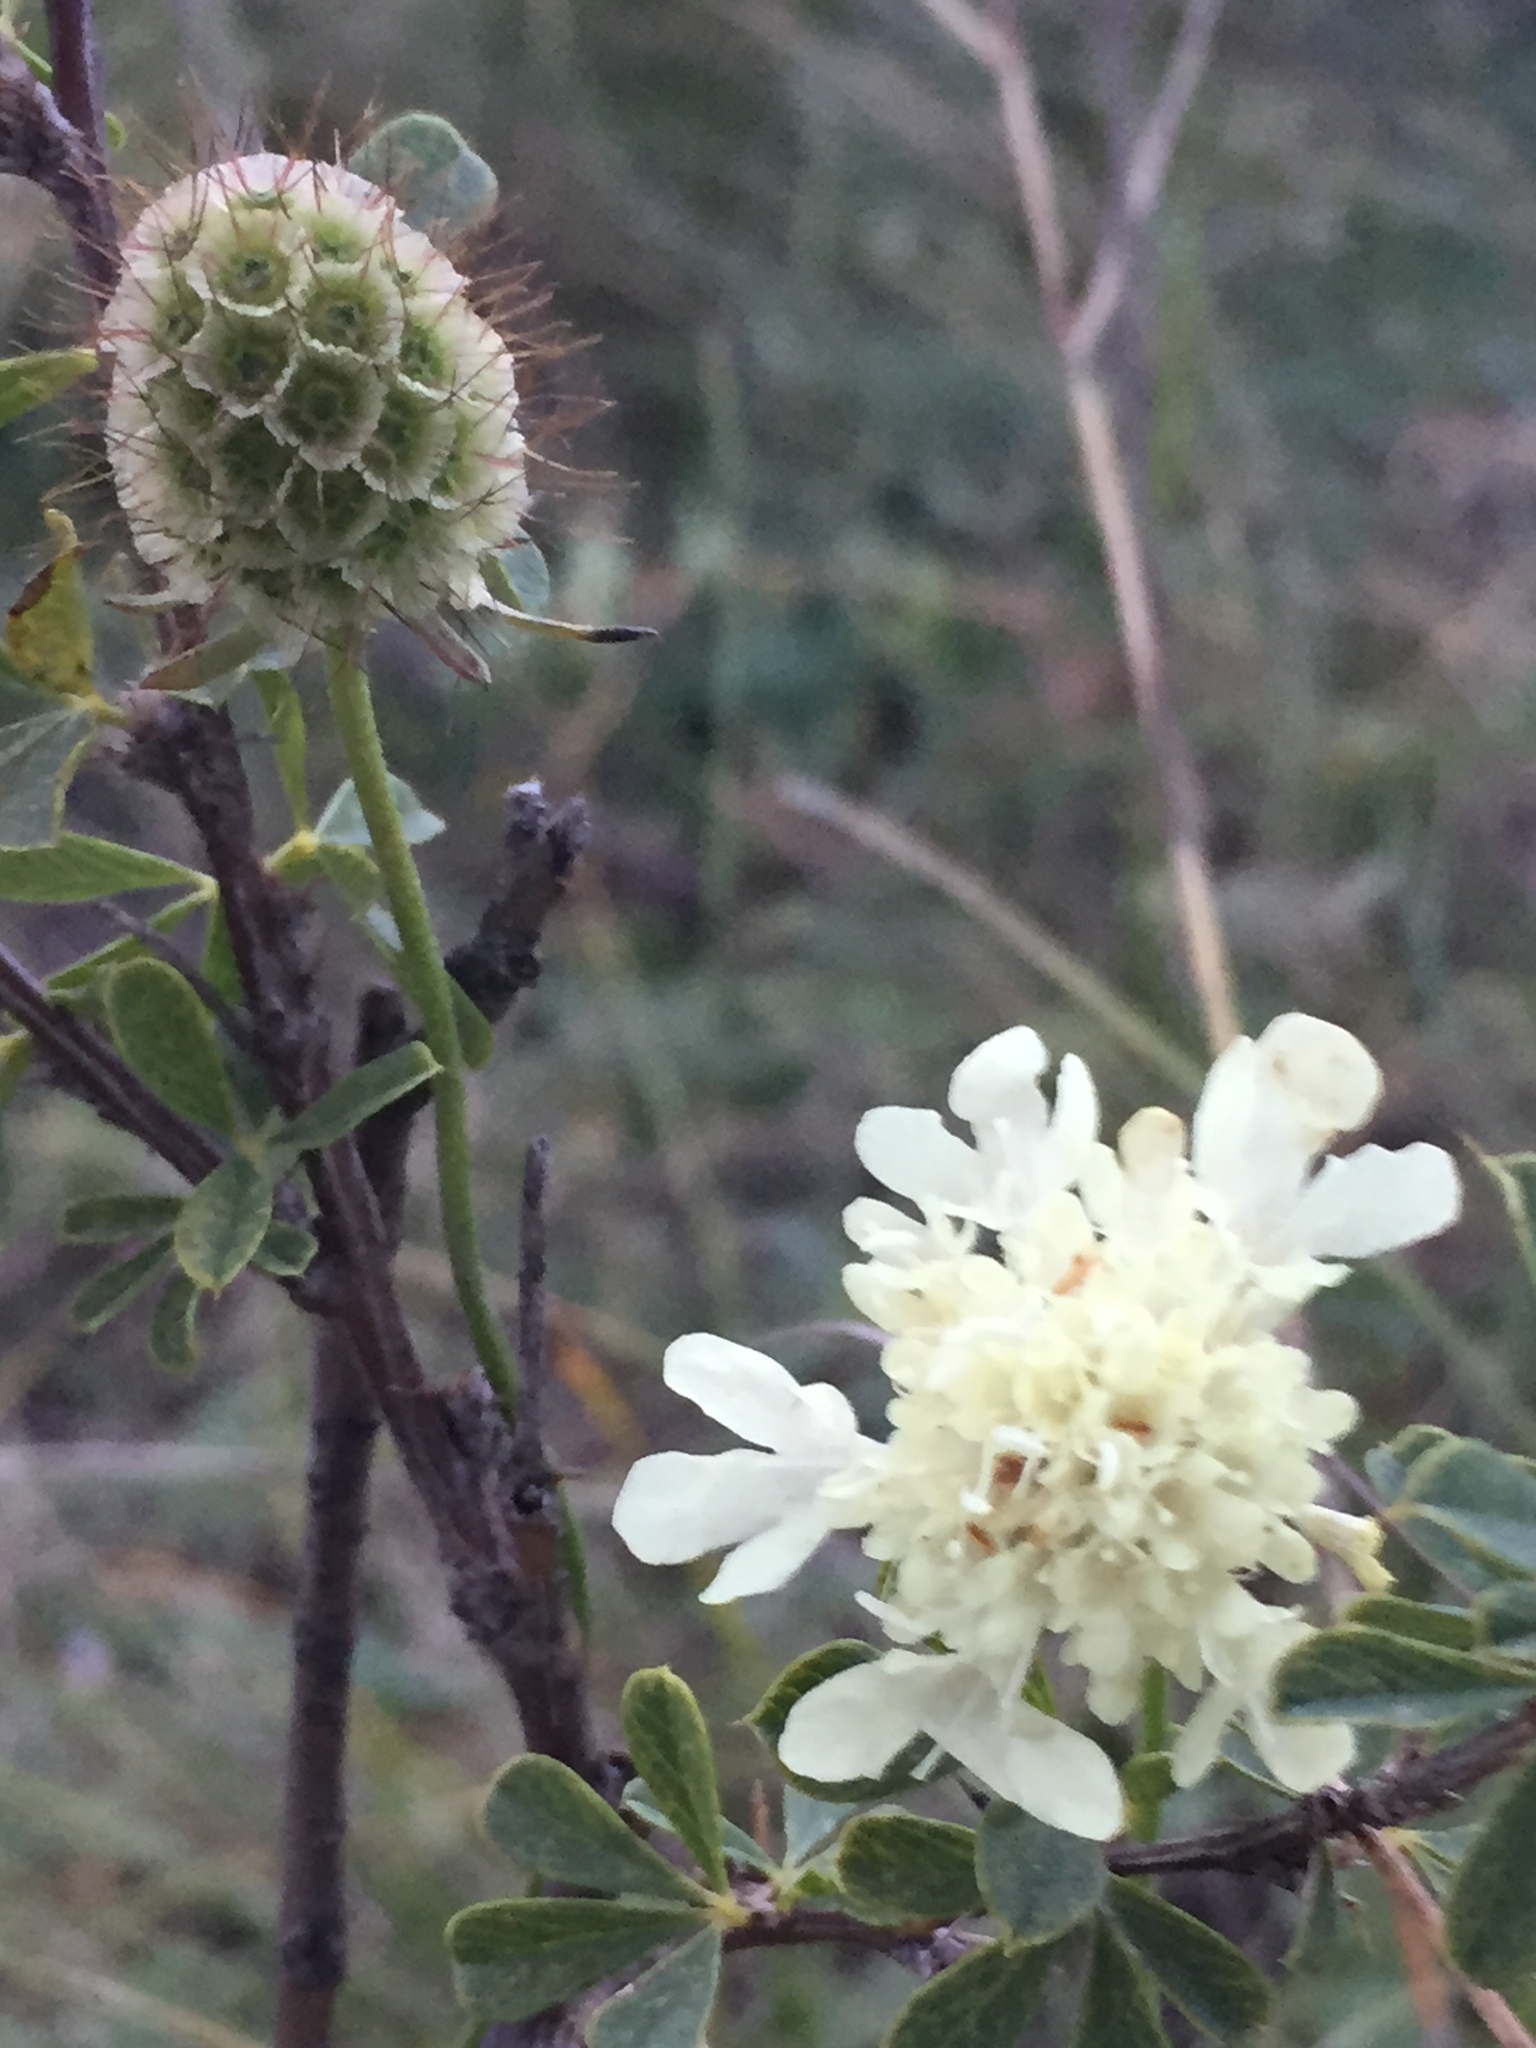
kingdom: Plantae
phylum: Tracheophyta
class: Magnoliopsida
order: Dipsacales
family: Caprifoliaceae
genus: Scabiosa
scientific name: Scabiosa ochroleuca
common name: Cream pincushions
